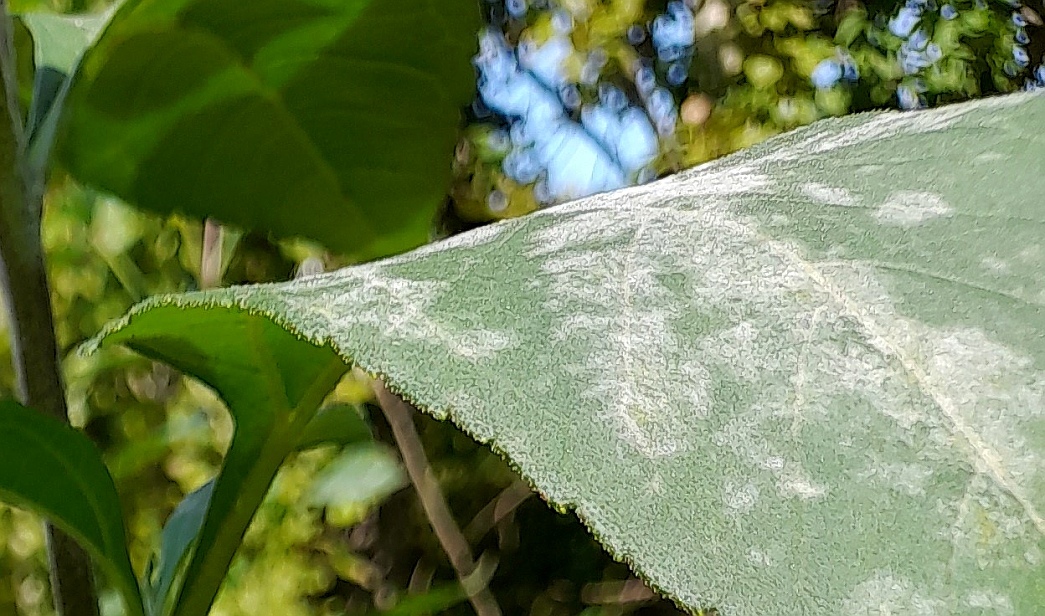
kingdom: Fungi
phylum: Ascomycota
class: Leotiomycetes
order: Helotiales
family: Erysiphaceae
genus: Podosphaera
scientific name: Podosphaera fusca
